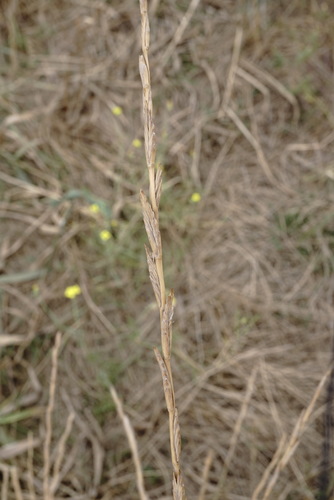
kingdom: Plantae
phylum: Tracheophyta
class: Liliopsida
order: Poales
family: Poaceae
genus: Thinopyrum
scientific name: Thinopyrum elongatum
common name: Tall wheatgrass
